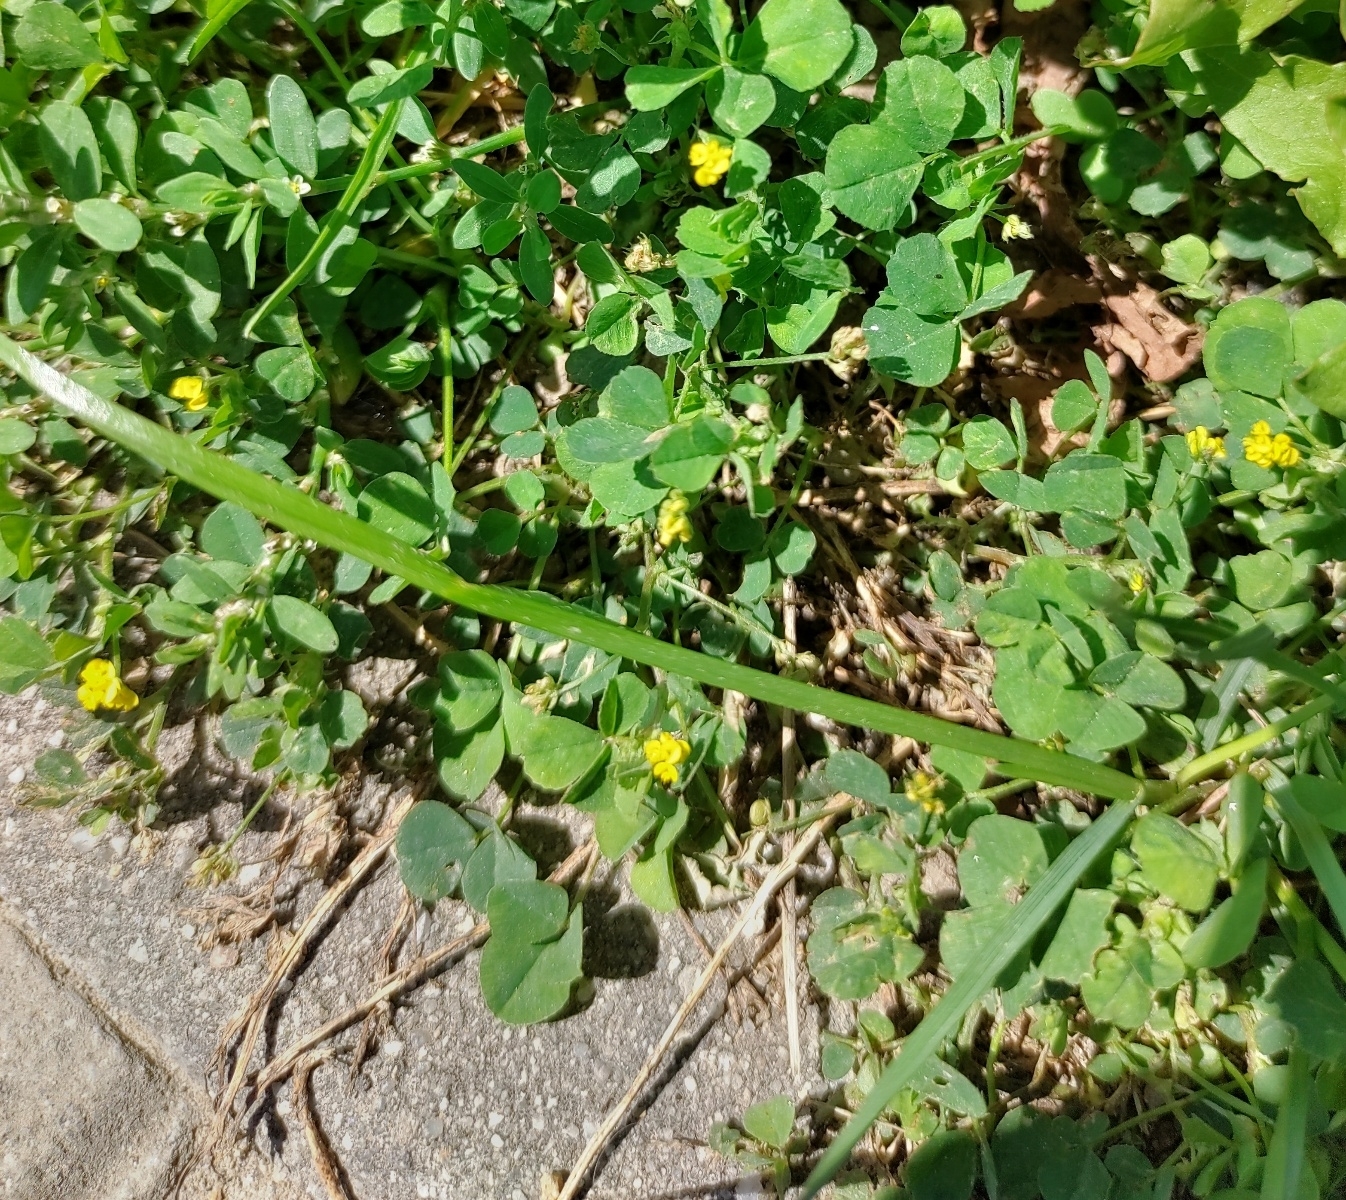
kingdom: Plantae
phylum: Tracheophyta
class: Magnoliopsida
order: Fabales
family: Fabaceae
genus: Medicago
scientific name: Medicago lupulina
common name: Black medick
